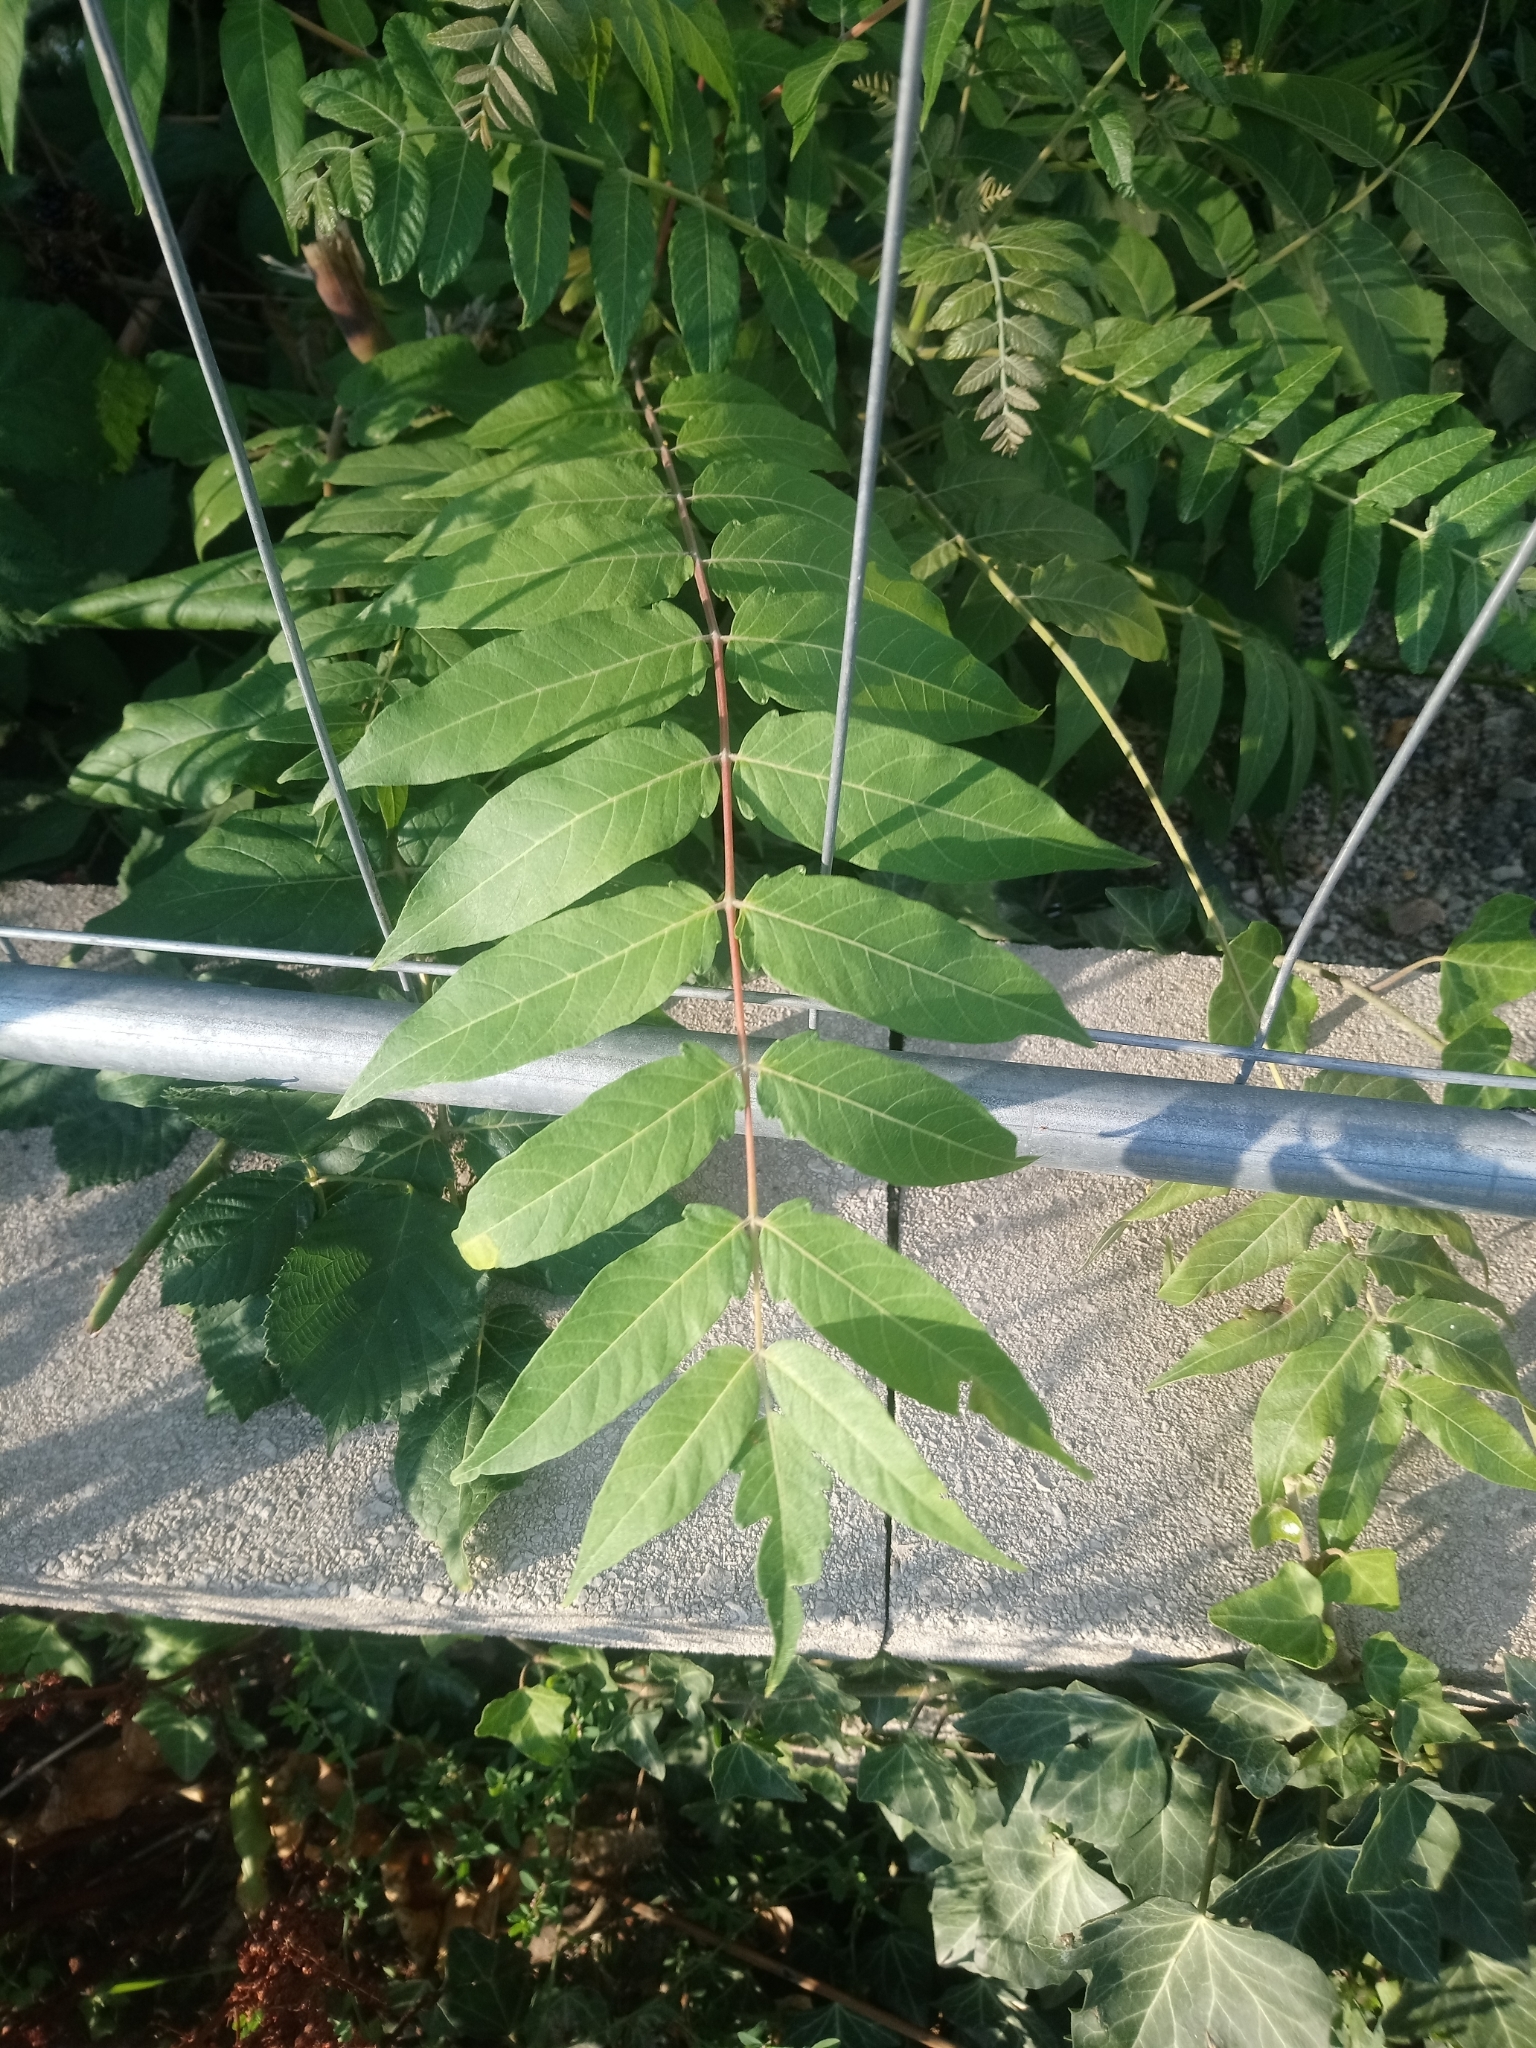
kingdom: Plantae
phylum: Tracheophyta
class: Magnoliopsida
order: Sapindales
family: Simaroubaceae
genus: Ailanthus
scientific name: Ailanthus altissima
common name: Tree-of-heaven
